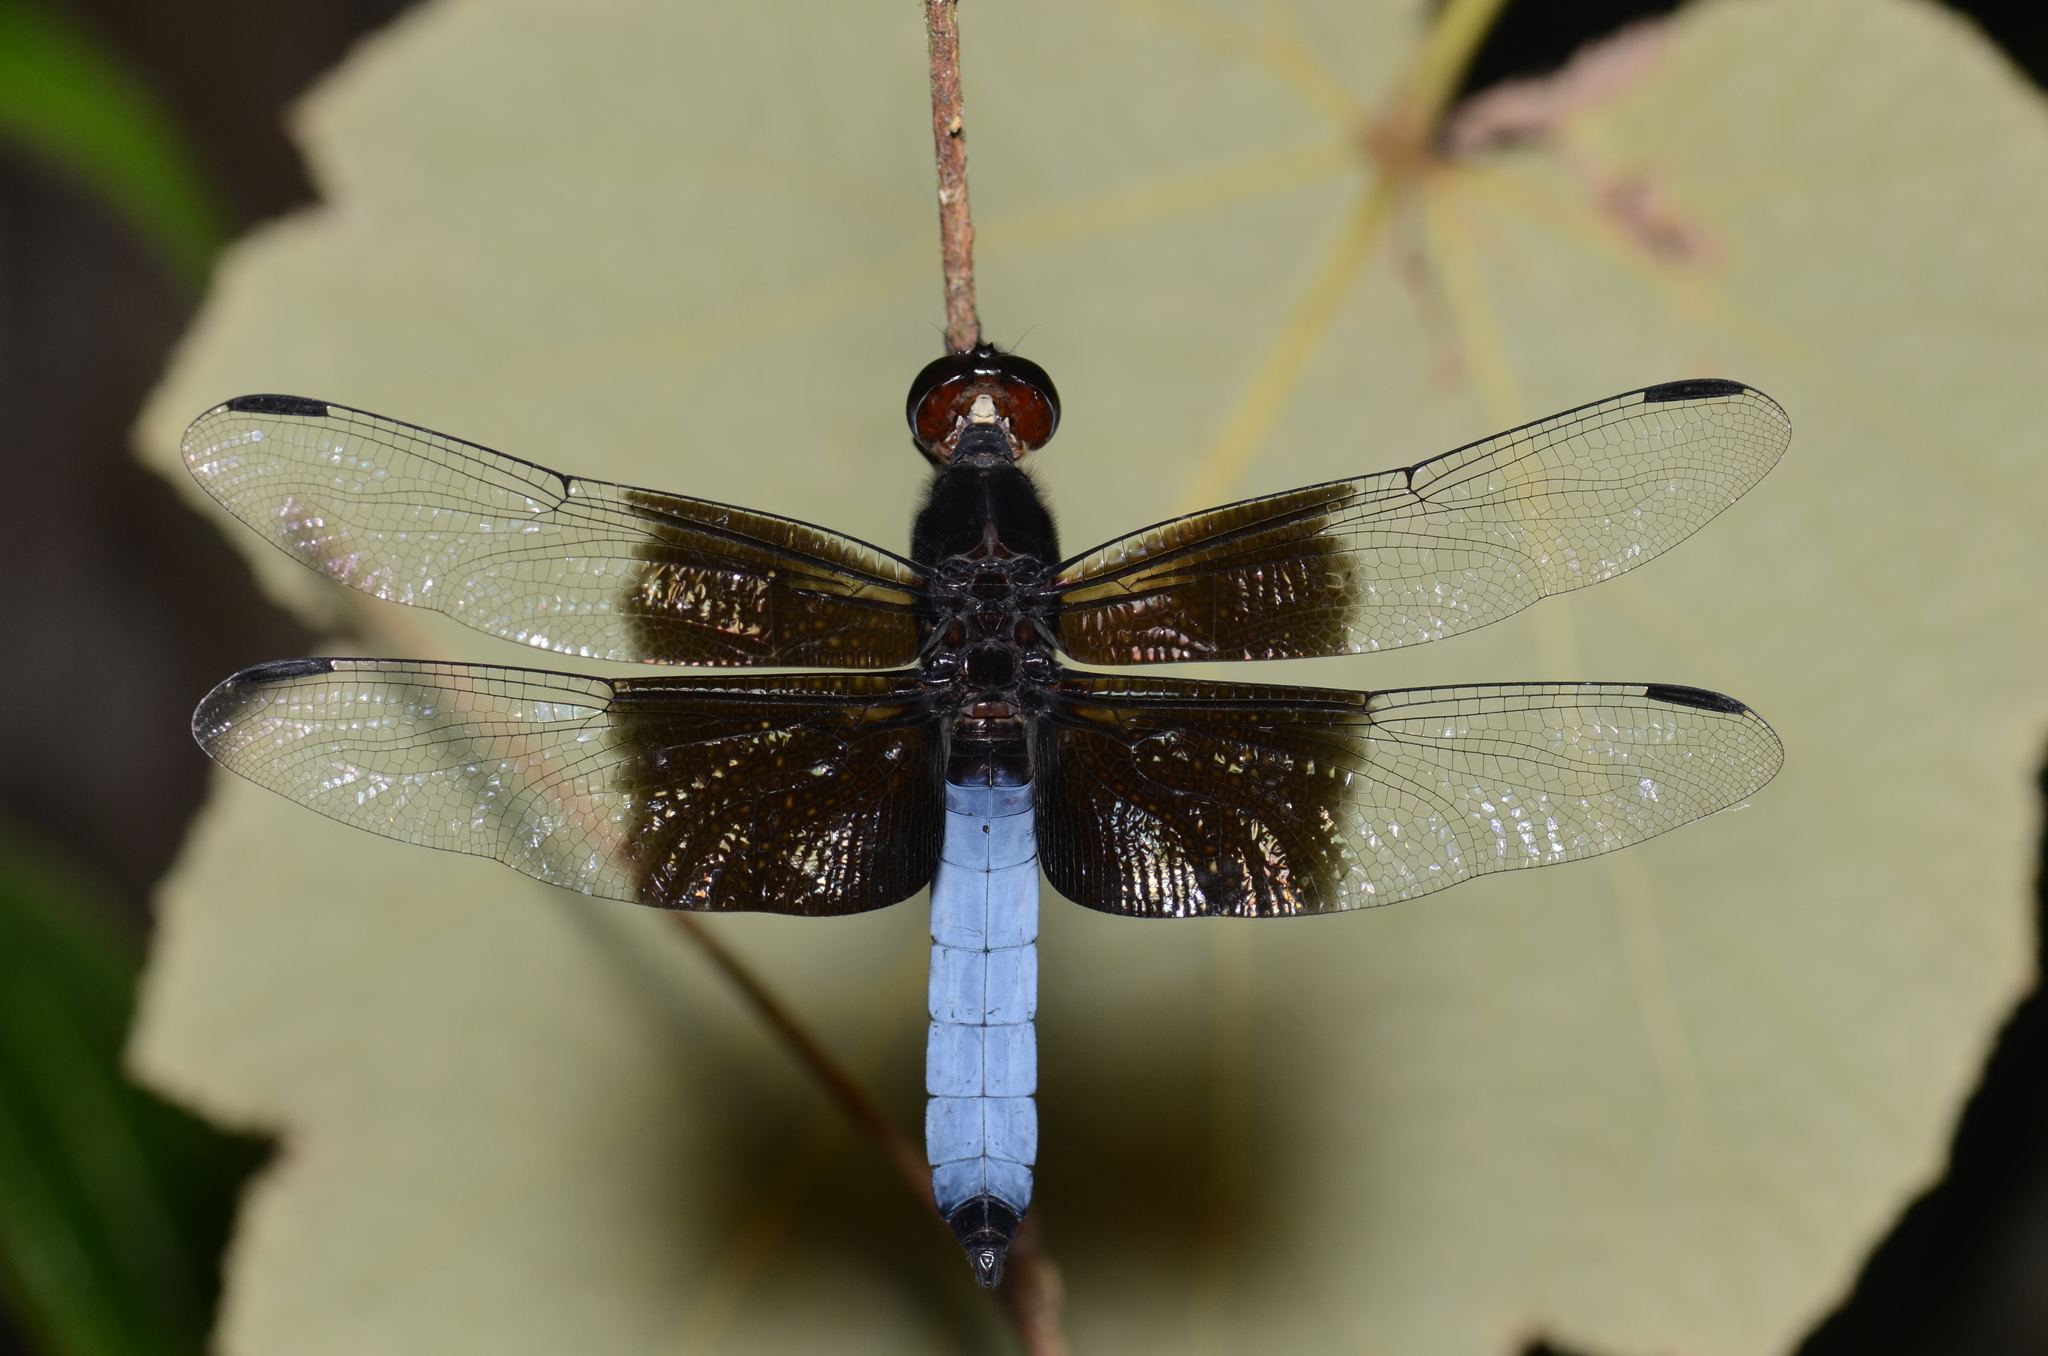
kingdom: Animalia
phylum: Arthropoda
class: Insecta
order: Odonata
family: Libellulidae
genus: Thermorthemis
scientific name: Thermorthemis madagascariensis
